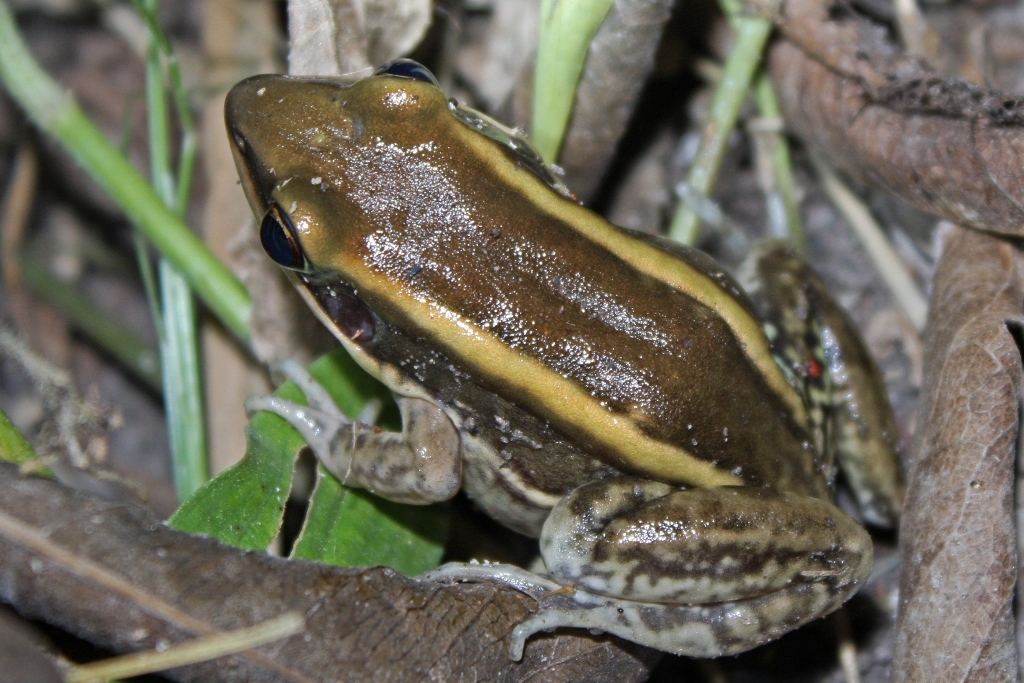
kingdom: Animalia
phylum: Chordata
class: Amphibia
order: Anura
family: Ranidae
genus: Amnirana
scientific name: Amnirana galamensis
